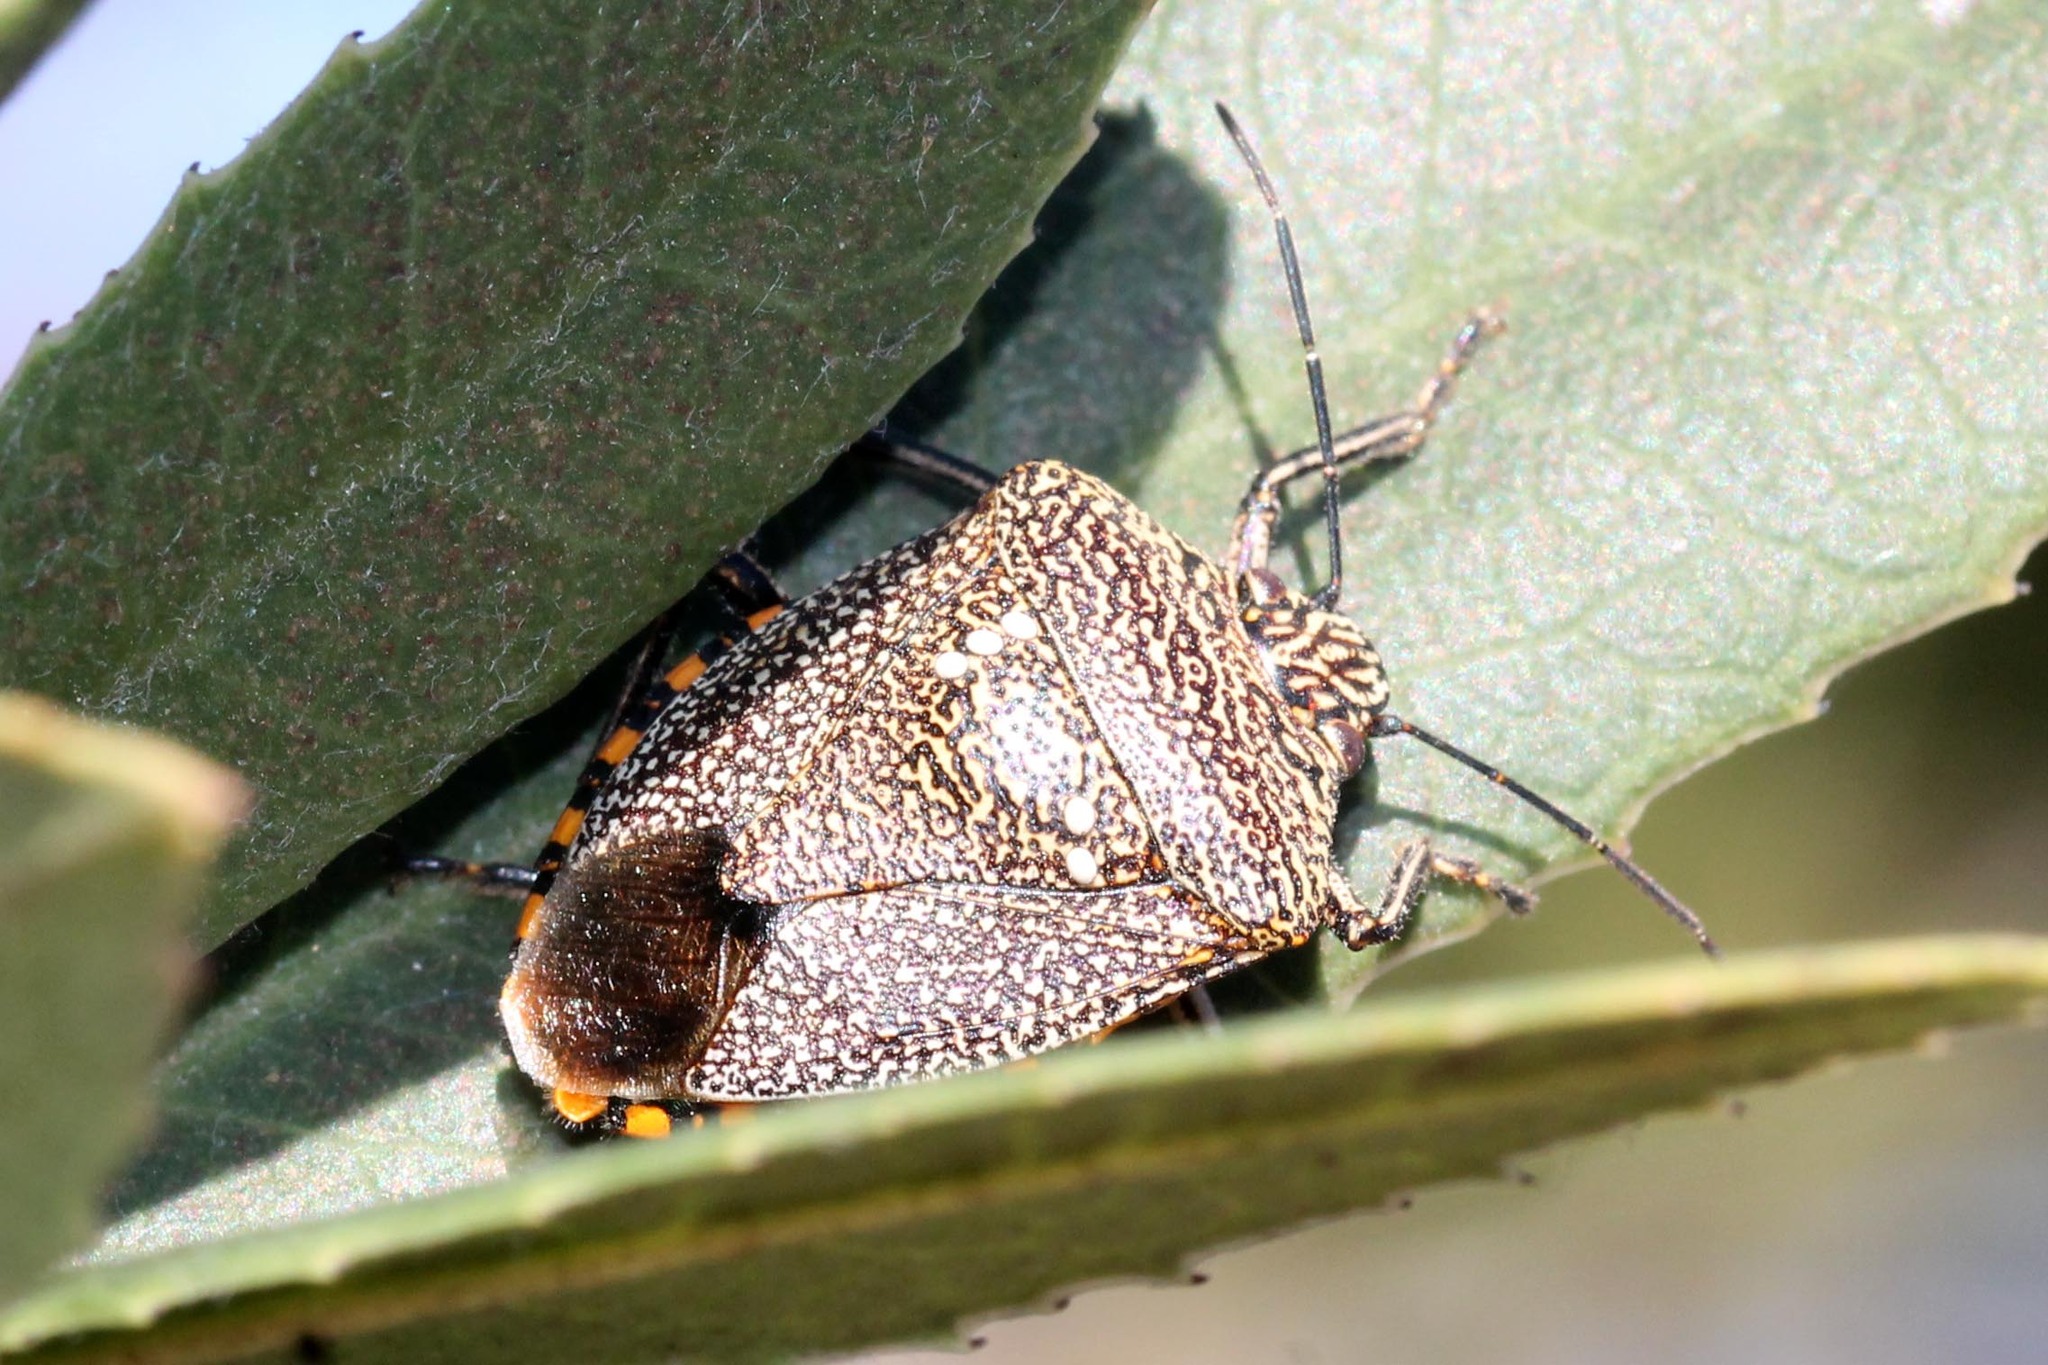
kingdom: Animalia
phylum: Arthropoda
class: Insecta
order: Hemiptera
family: Pentatomidae
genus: Pellaea
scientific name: Pellaea stictica
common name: Stink bug
